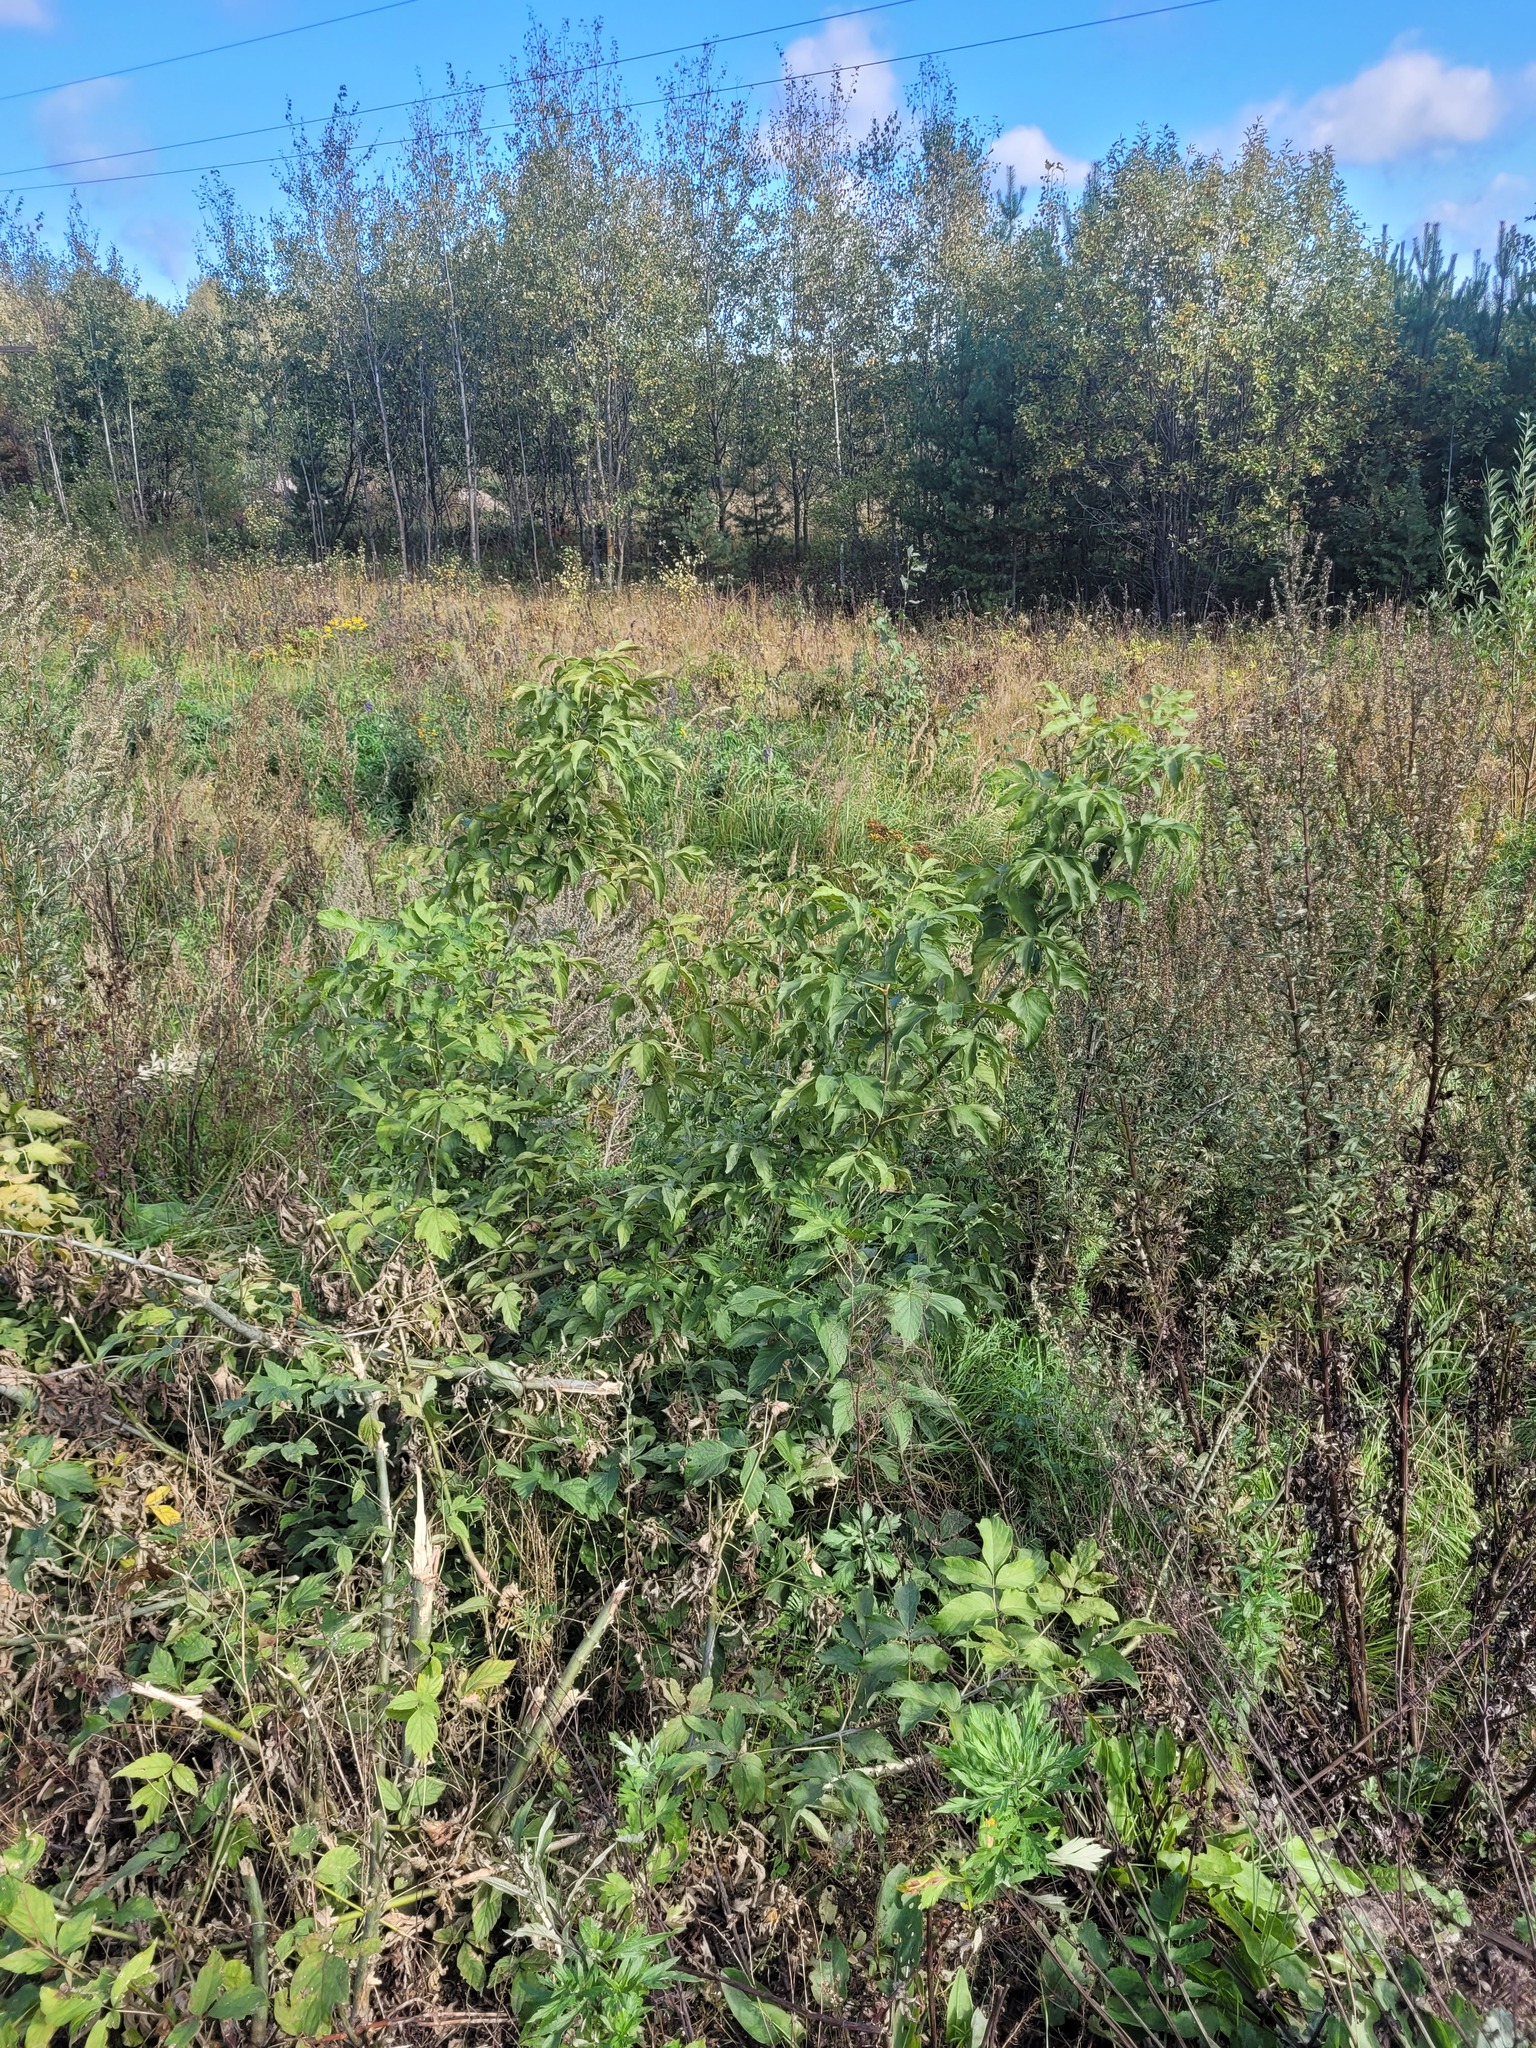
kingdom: Plantae
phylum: Tracheophyta
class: Magnoliopsida
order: Sapindales
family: Sapindaceae
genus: Acer
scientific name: Acer negundo
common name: Ashleaf maple
